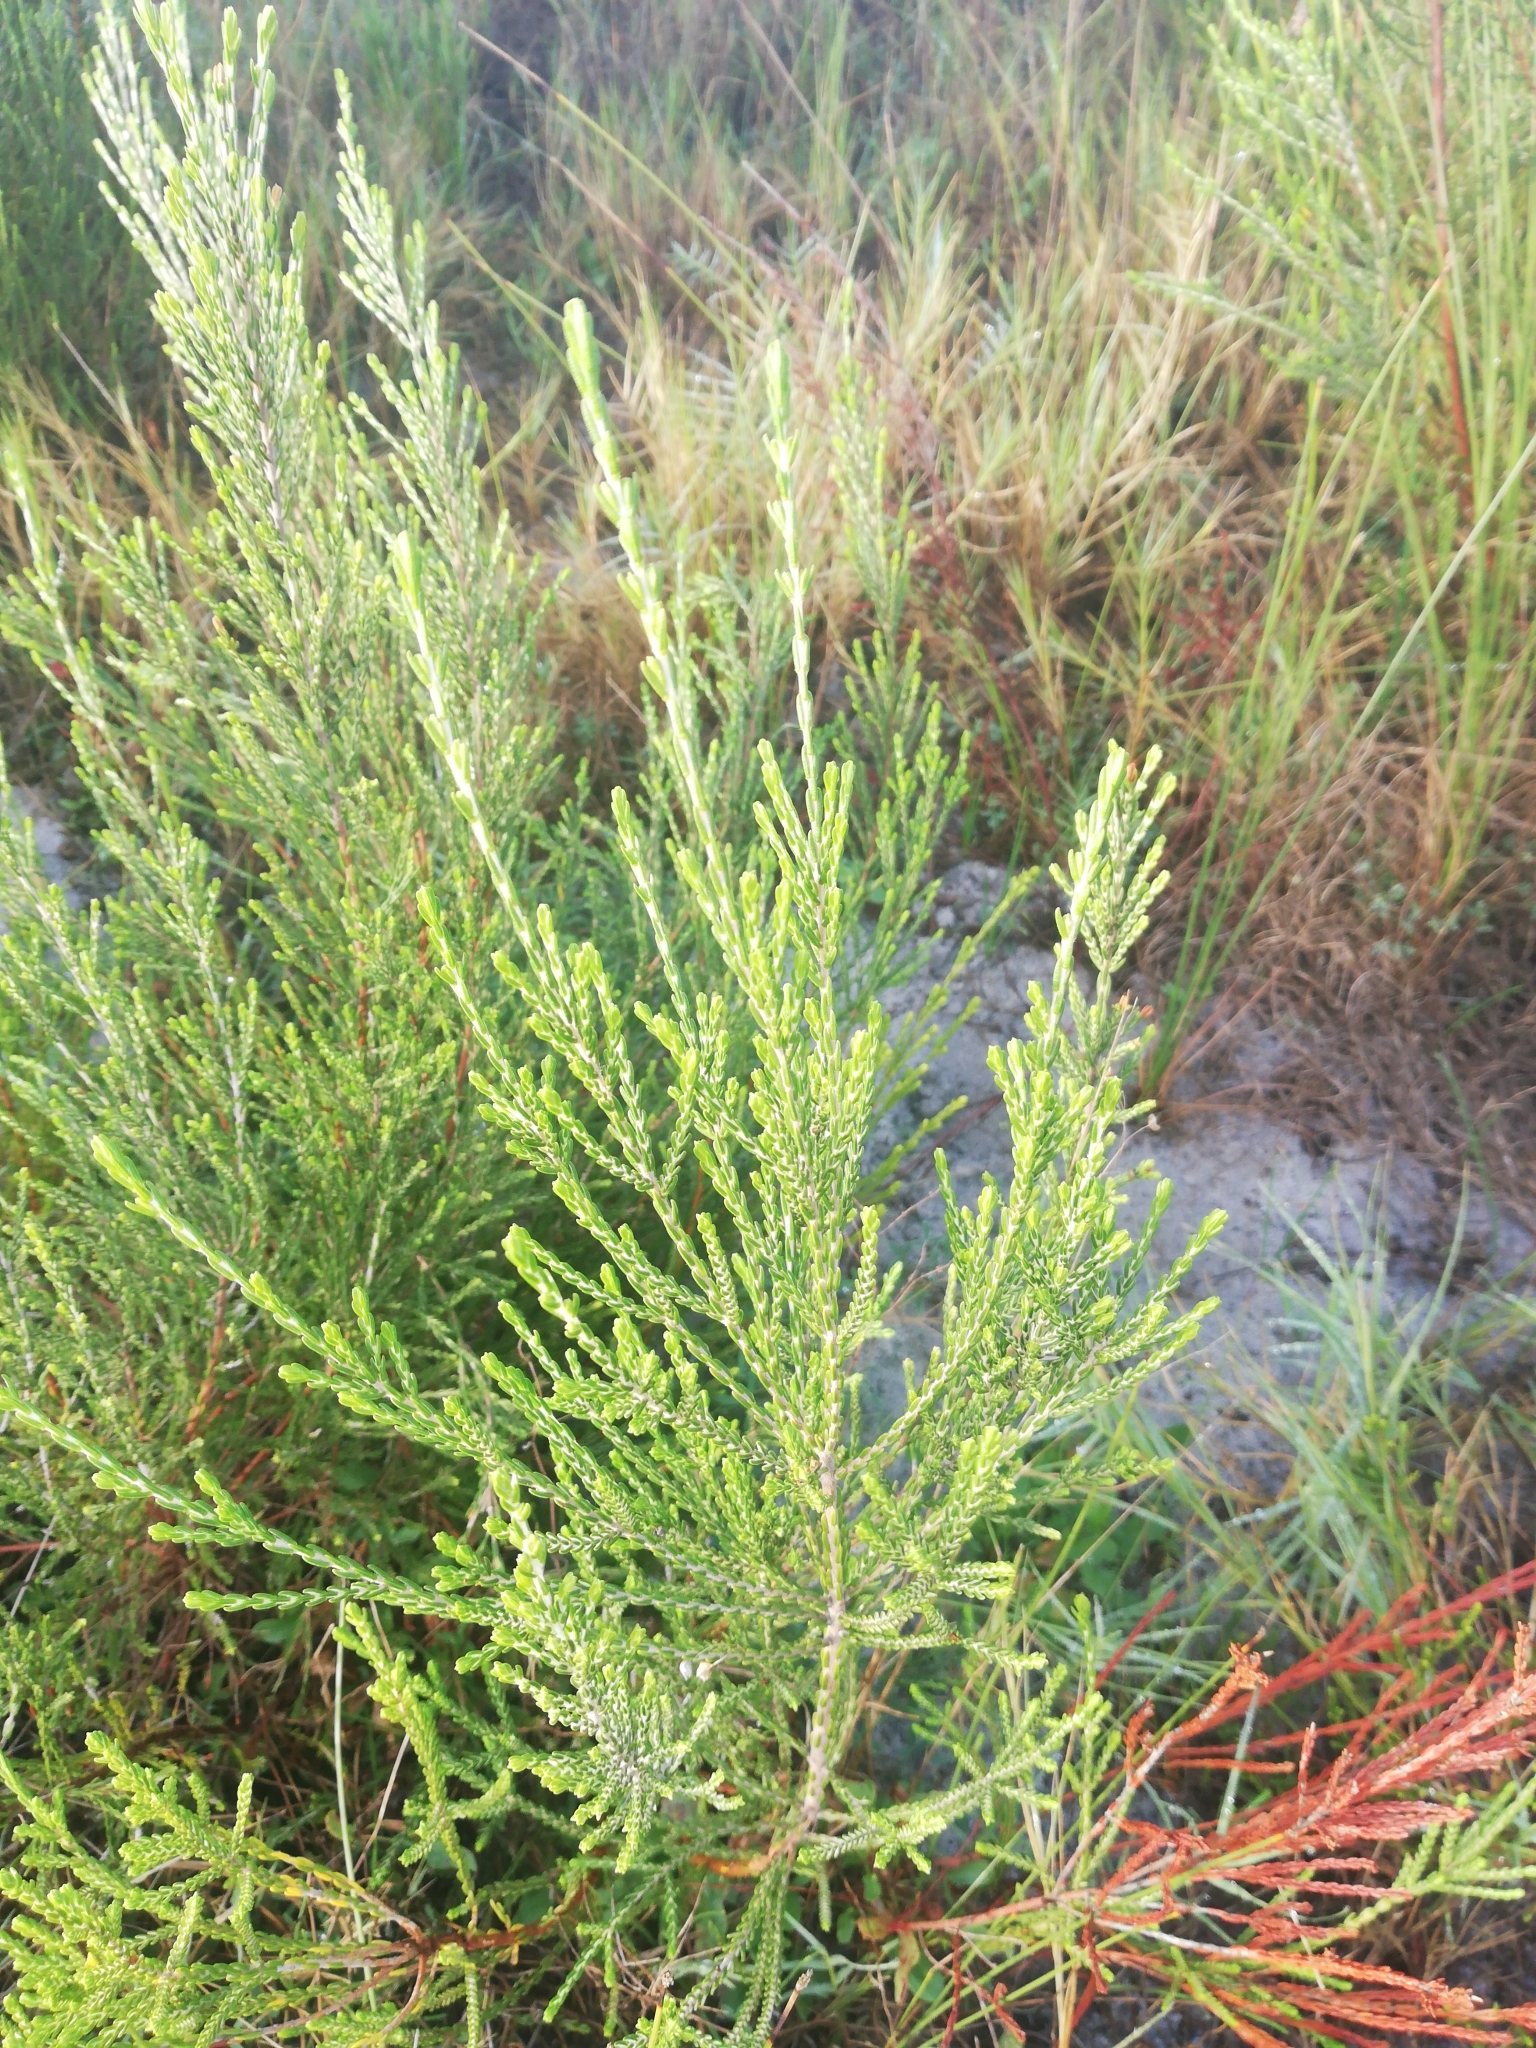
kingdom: Plantae
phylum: Tracheophyta
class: Magnoliopsida
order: Malvales
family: Thymelaeaceae
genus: Passerina
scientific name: Passerina corymbosa
